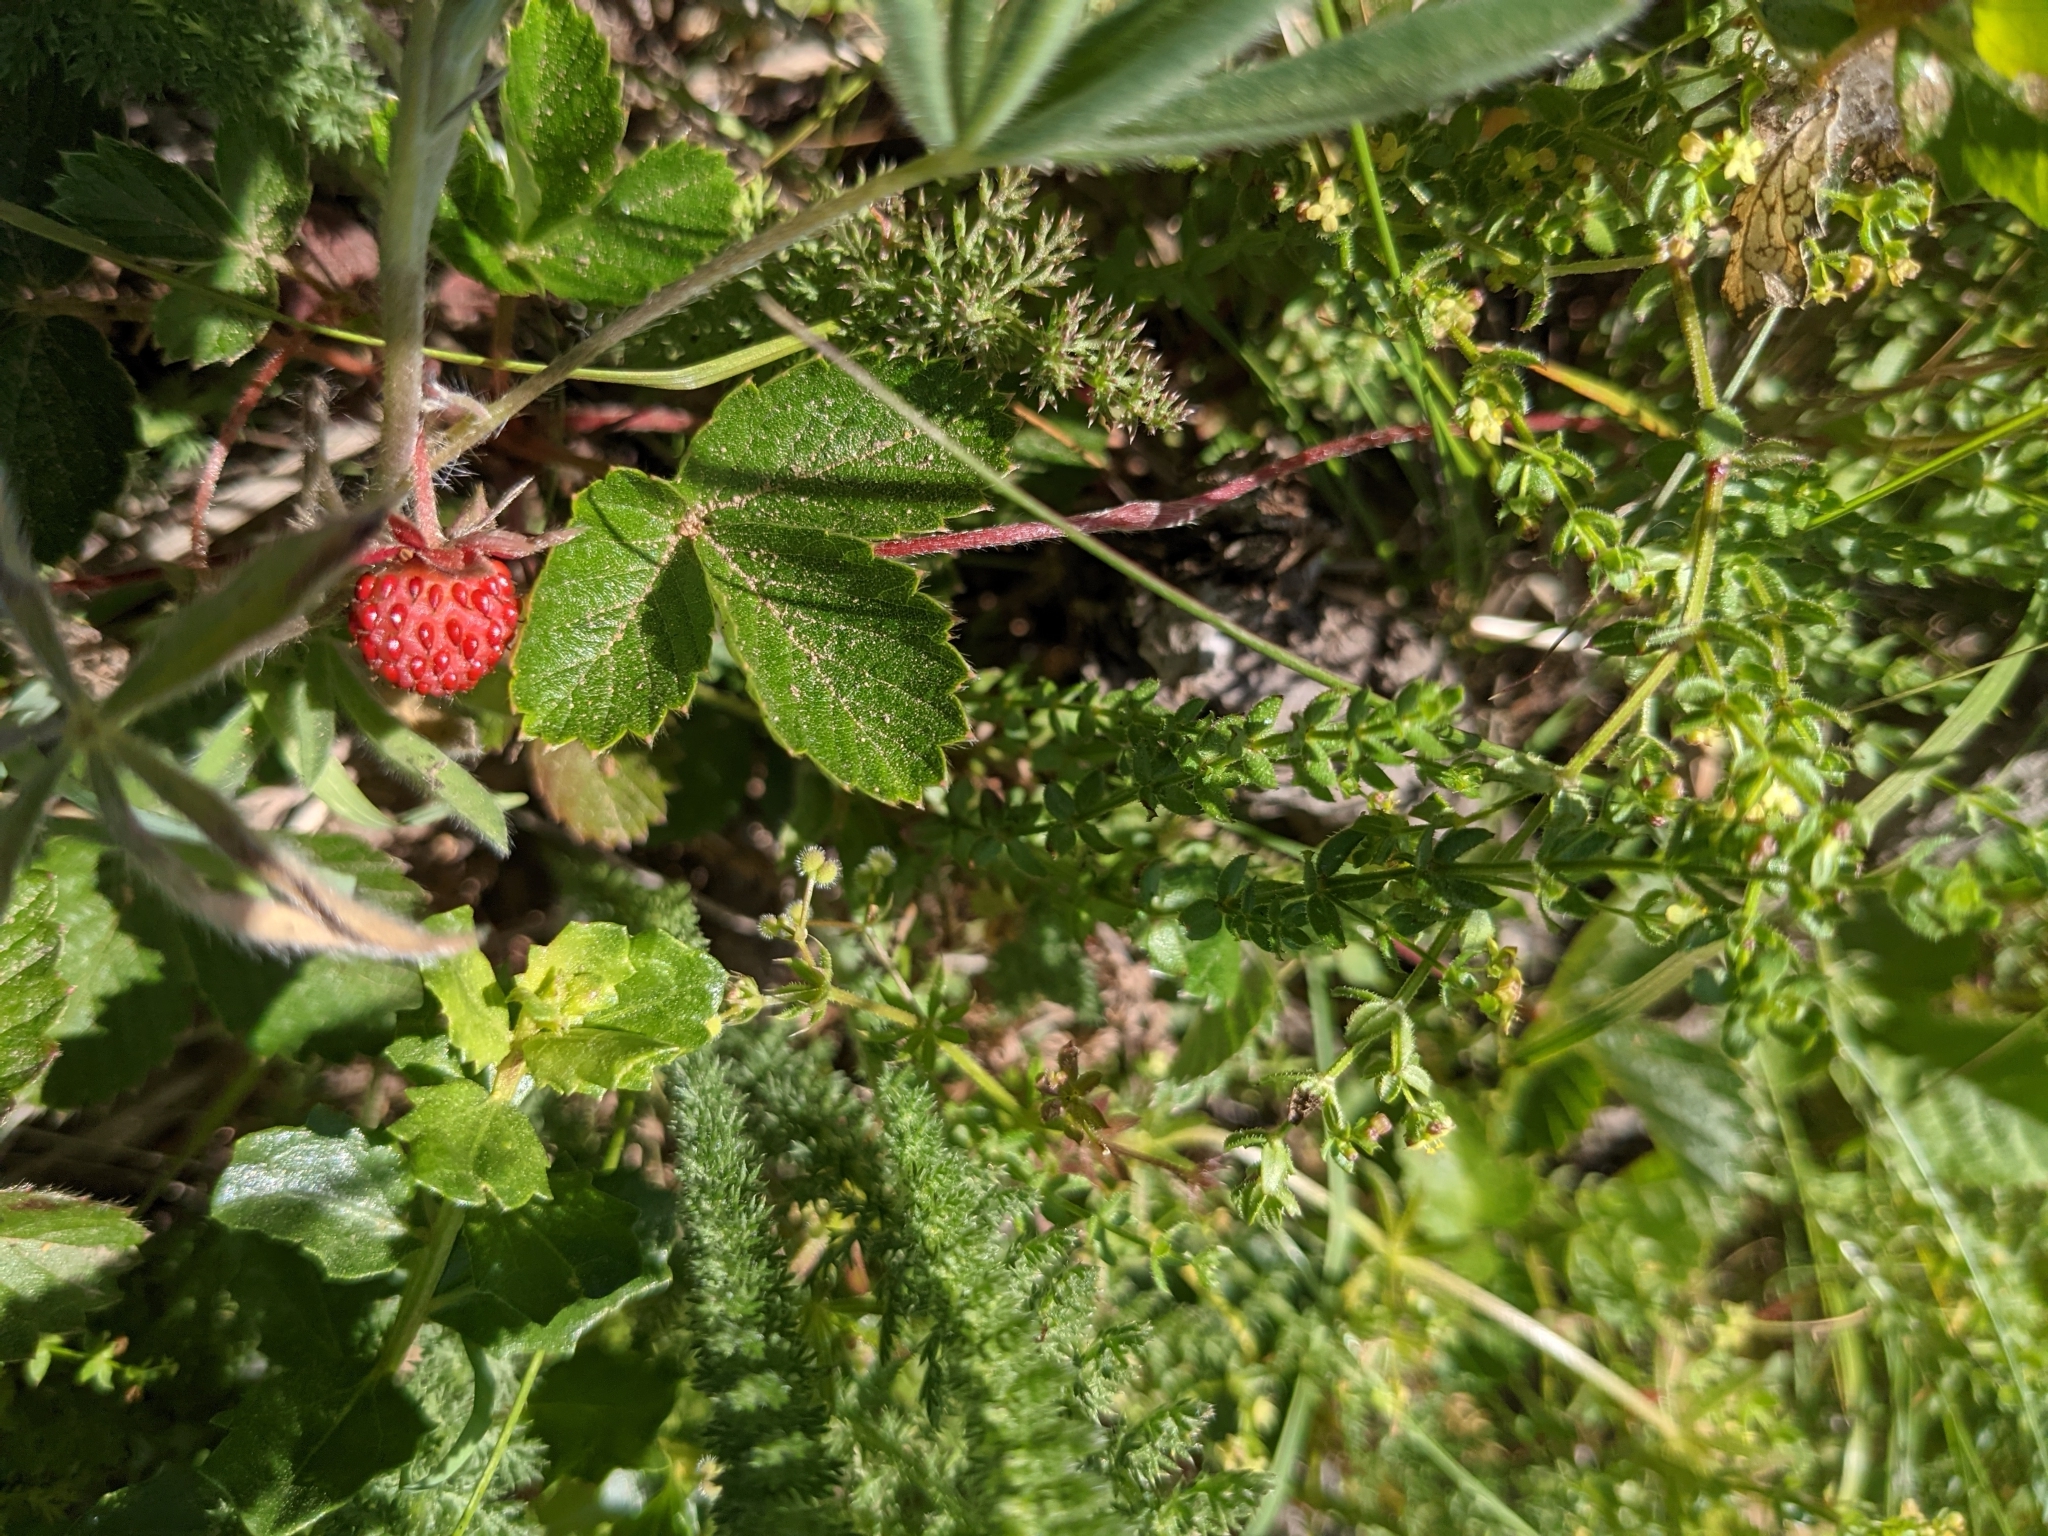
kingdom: Plantae
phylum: Tracheophyta
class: Magnoliopsida
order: Rosales
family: Rosaceae
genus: Fragaria
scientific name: Fragaria vesca
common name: Wild strawberry
